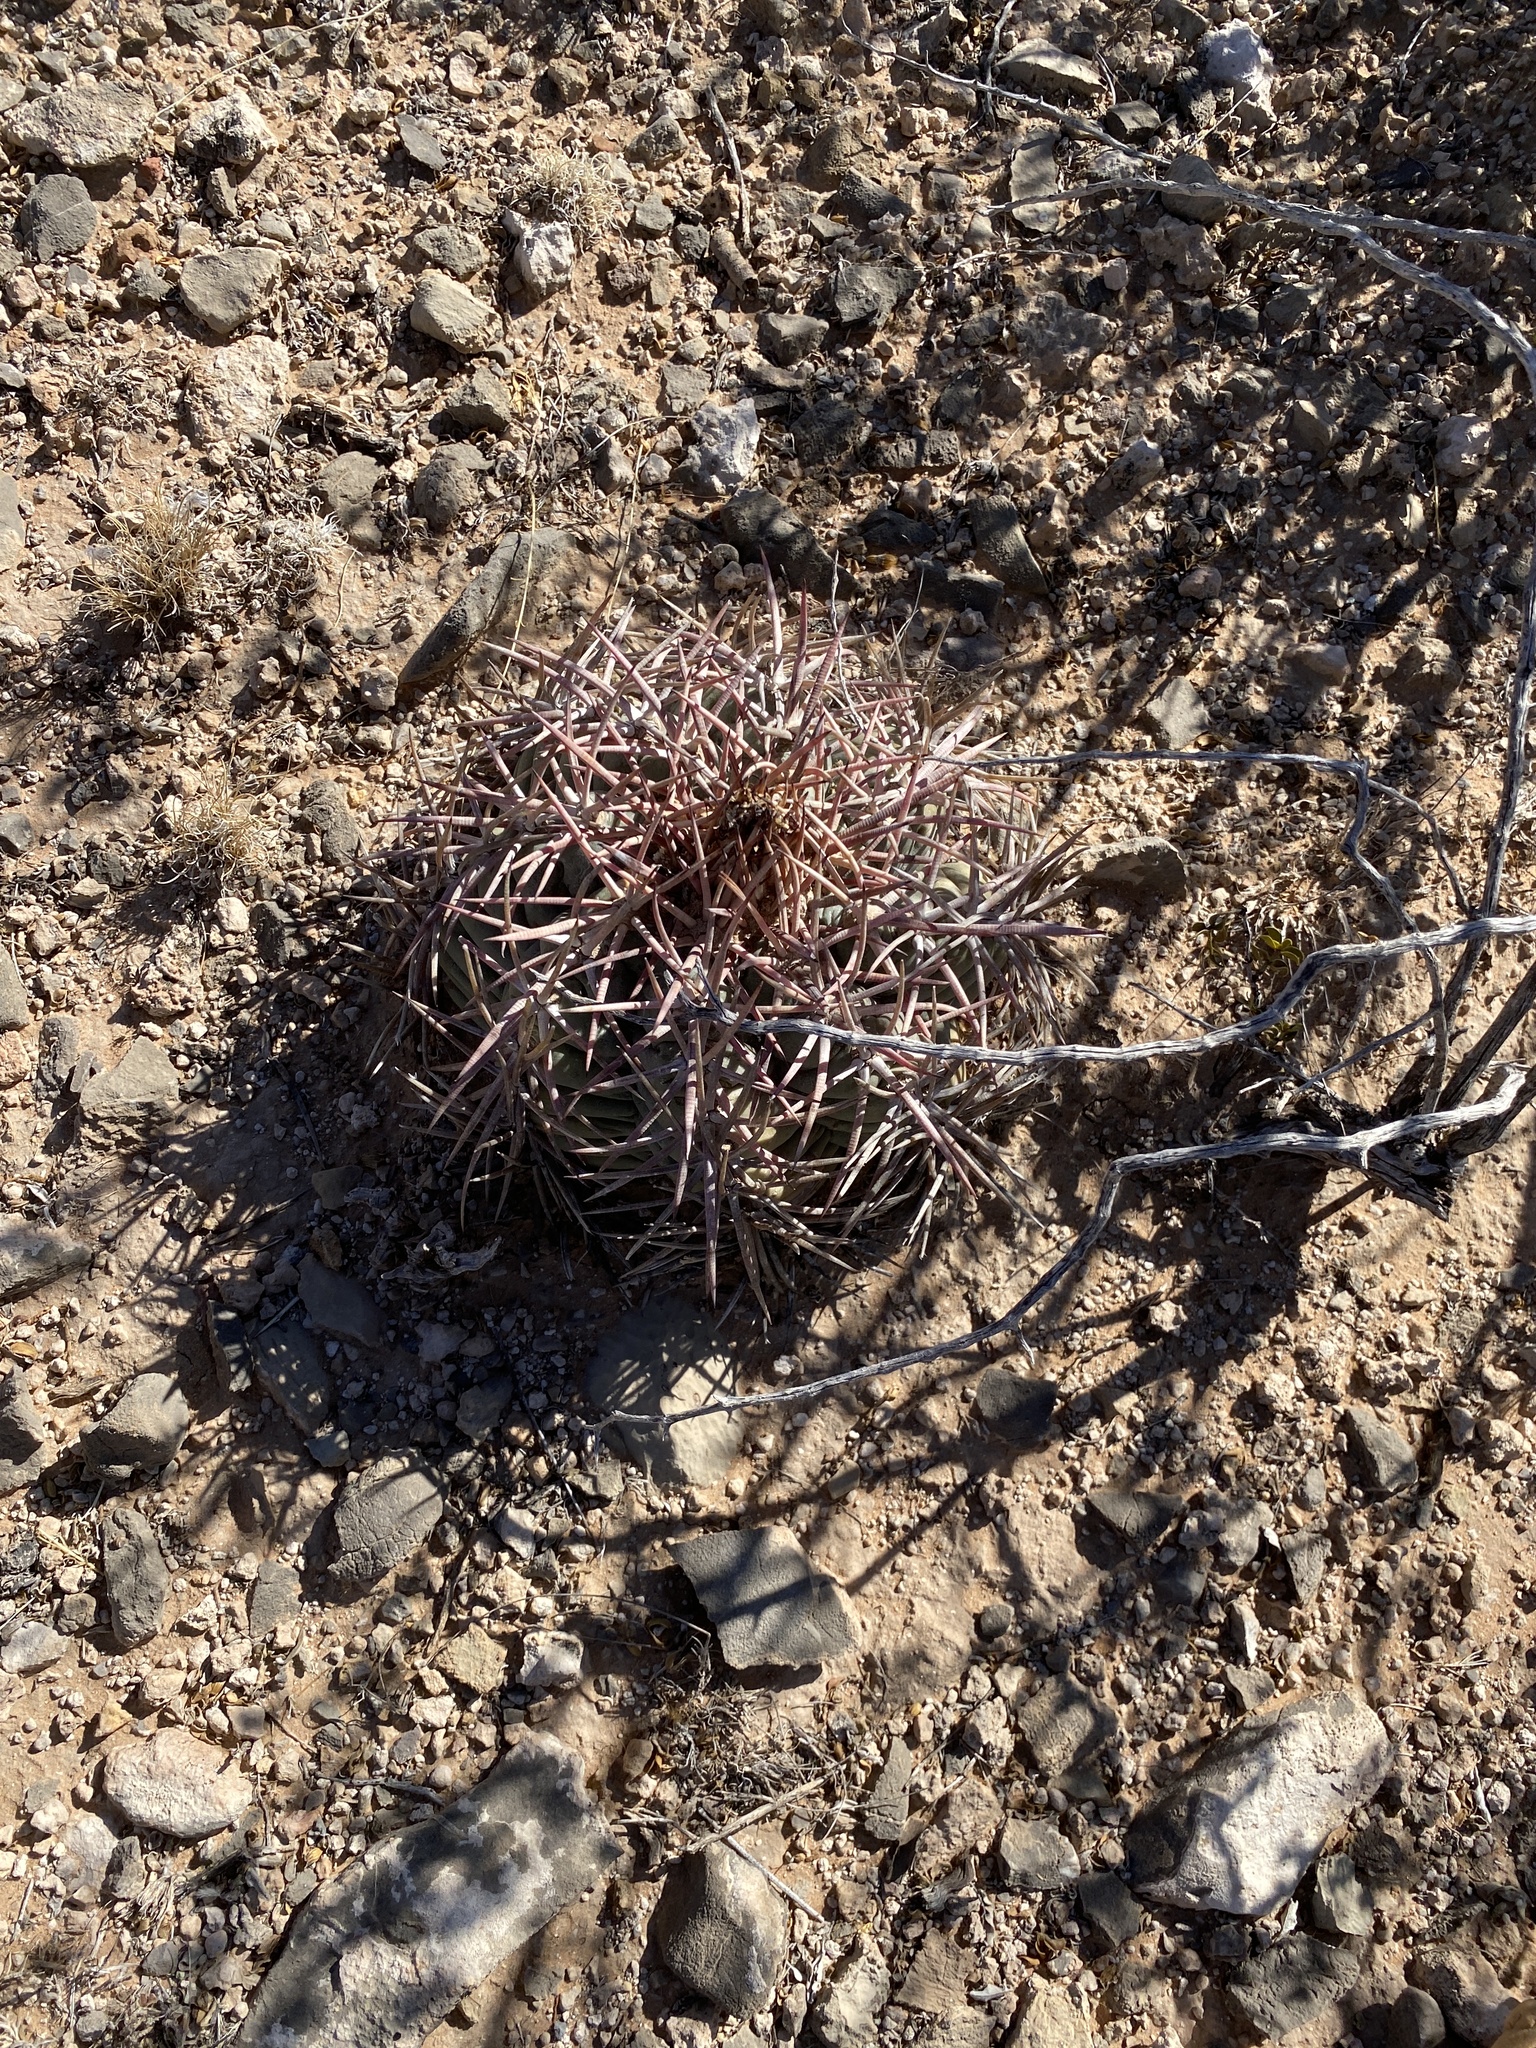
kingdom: Plantae
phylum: Tracheophyta
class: Magnoliopsida
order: Caryophyllales
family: Cactaceae
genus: Echinocactus
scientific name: Echinocactus horizonthalonius
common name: Devilshead
